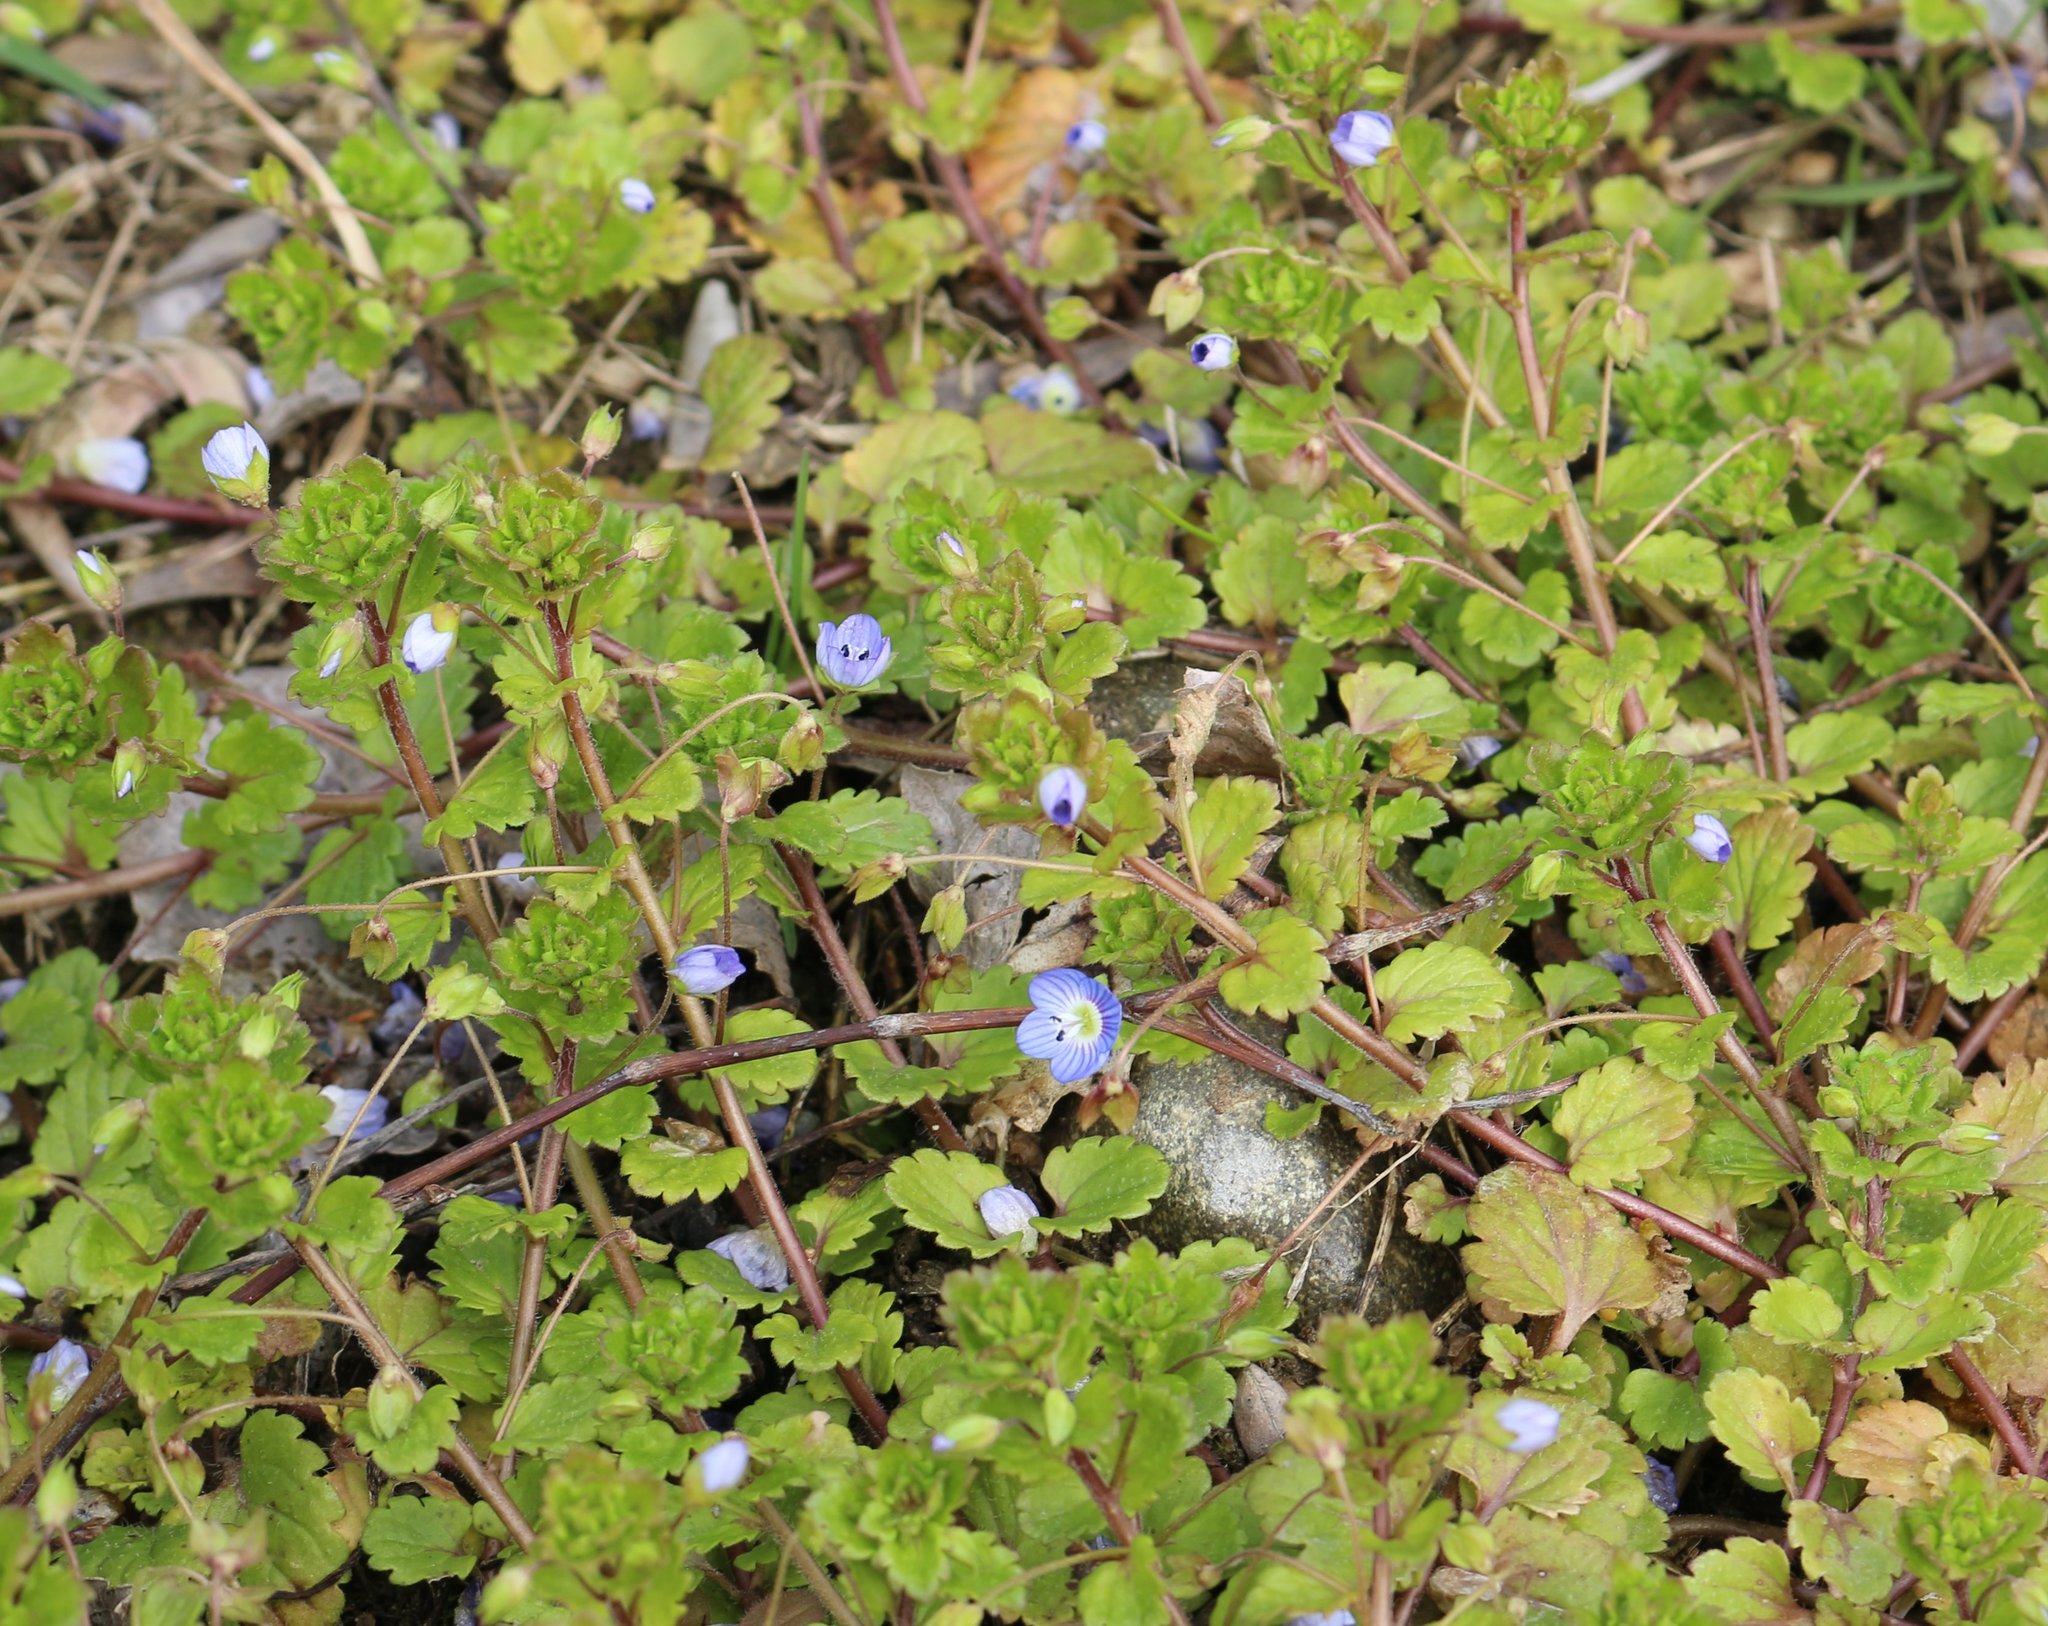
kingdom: Plantae
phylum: Tracheophyta
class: Magnoliopsida
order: Lamiales
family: Plantaginaceae
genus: Veronica
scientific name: Veronica persica
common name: Common field-speedwell
